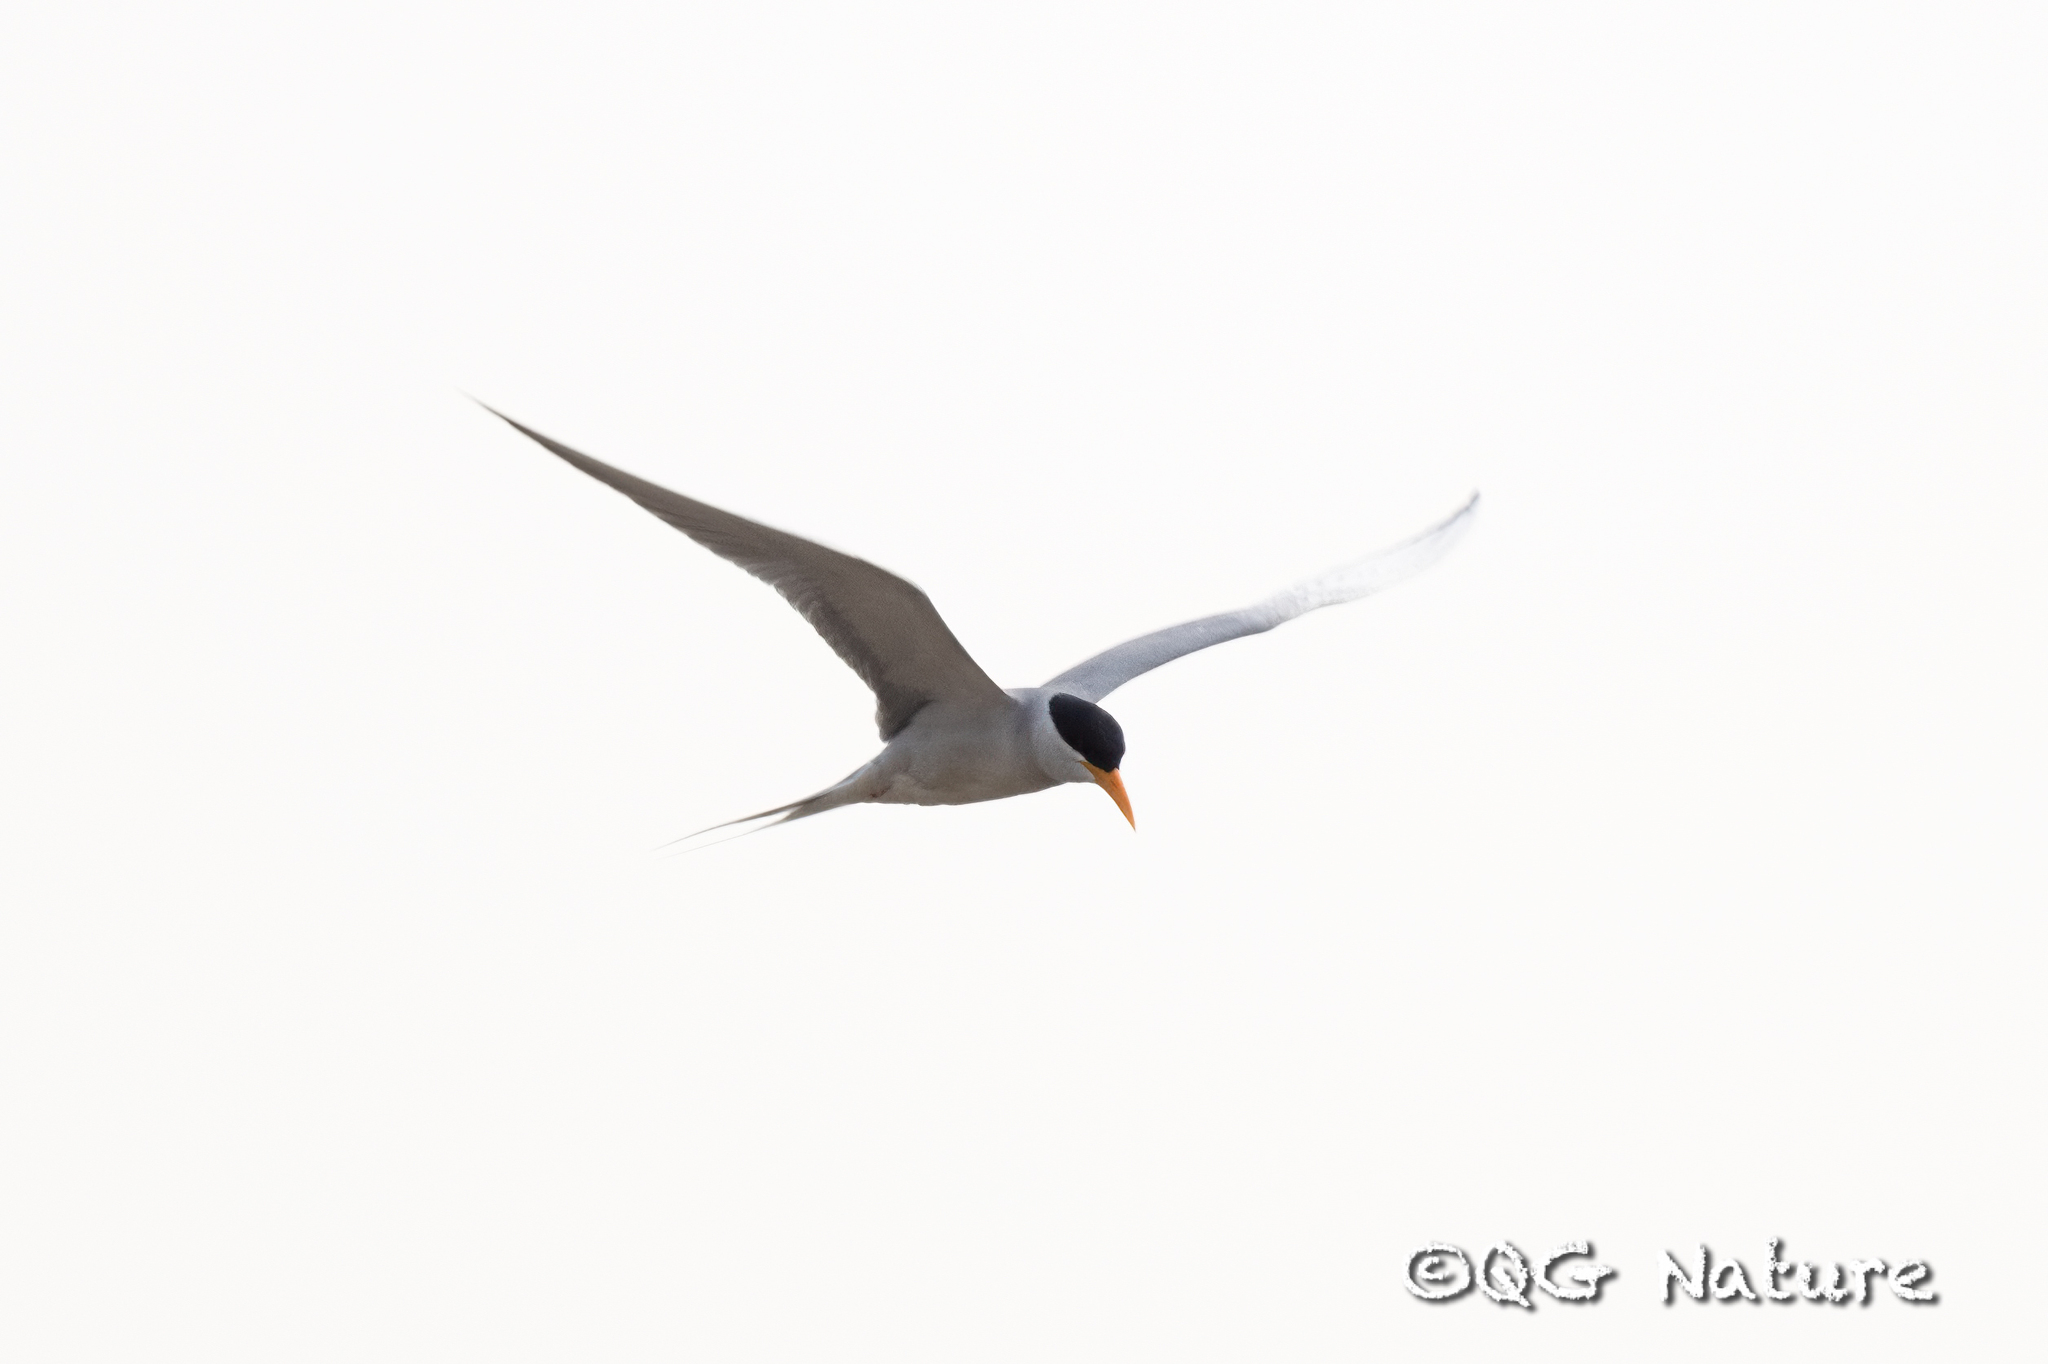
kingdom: Animalia
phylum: Chordata
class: Aves
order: Charadriiformes
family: Laridae
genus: Sterna
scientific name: Sterna aurantia
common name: River tern
